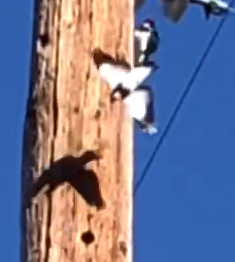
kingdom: Animalia
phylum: Chordata
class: Aves
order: Piciformes
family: Picidae
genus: Melanerpes
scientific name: Melanerpes formicivorus
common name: Acorn woodpecker
